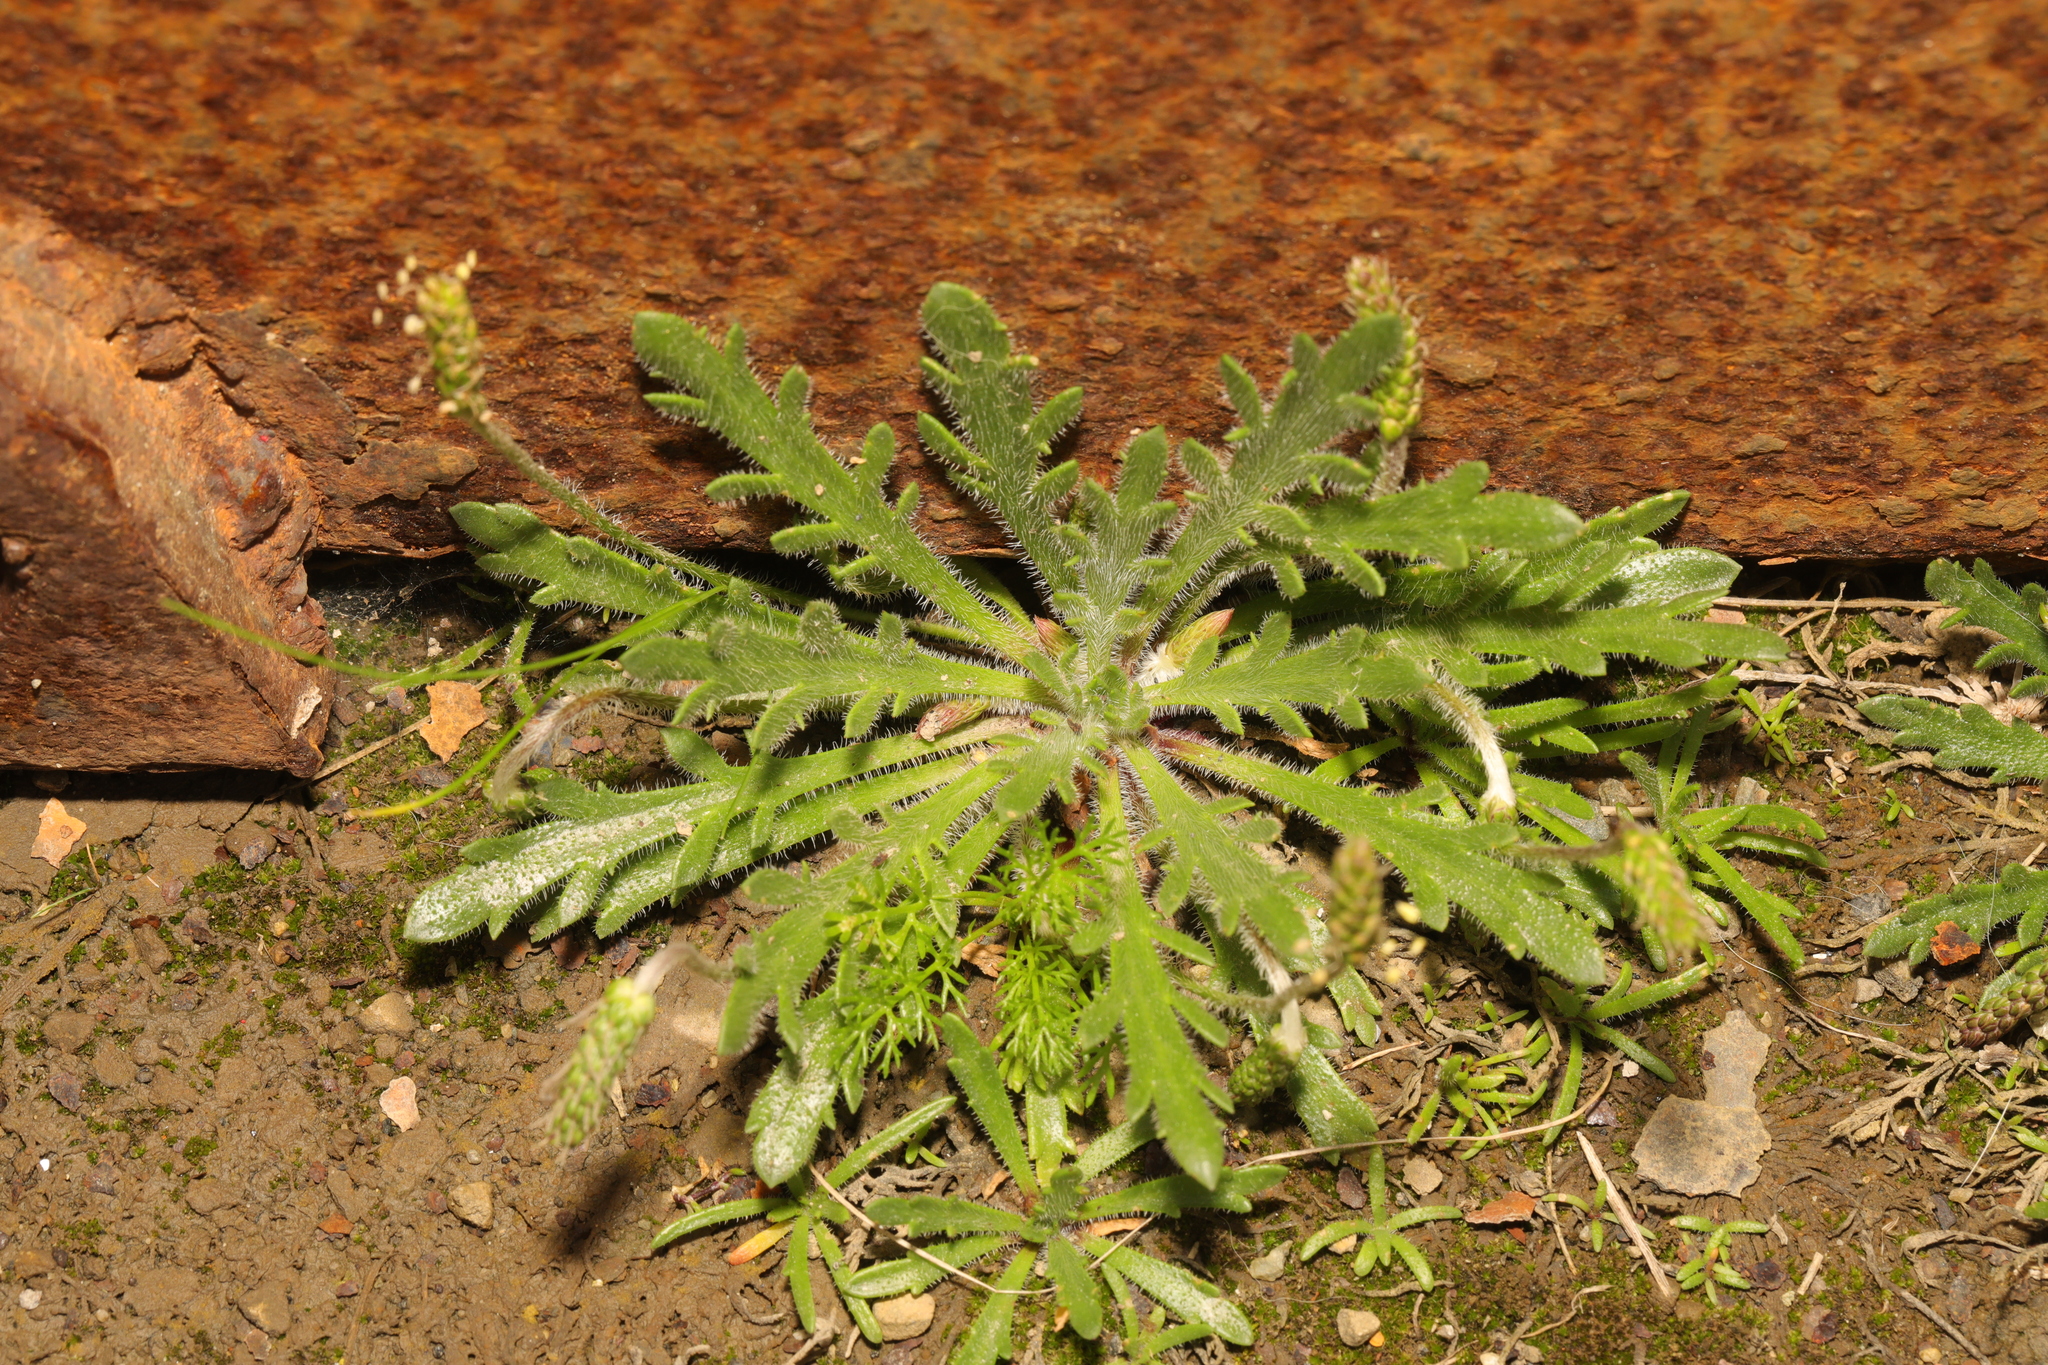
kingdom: Plantae
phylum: Tracheophyta
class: Magnoliopsida
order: Lamiales
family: Plantaginaceae
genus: Plantago
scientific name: Plantago coronopus
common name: Buck's-horn plantain
